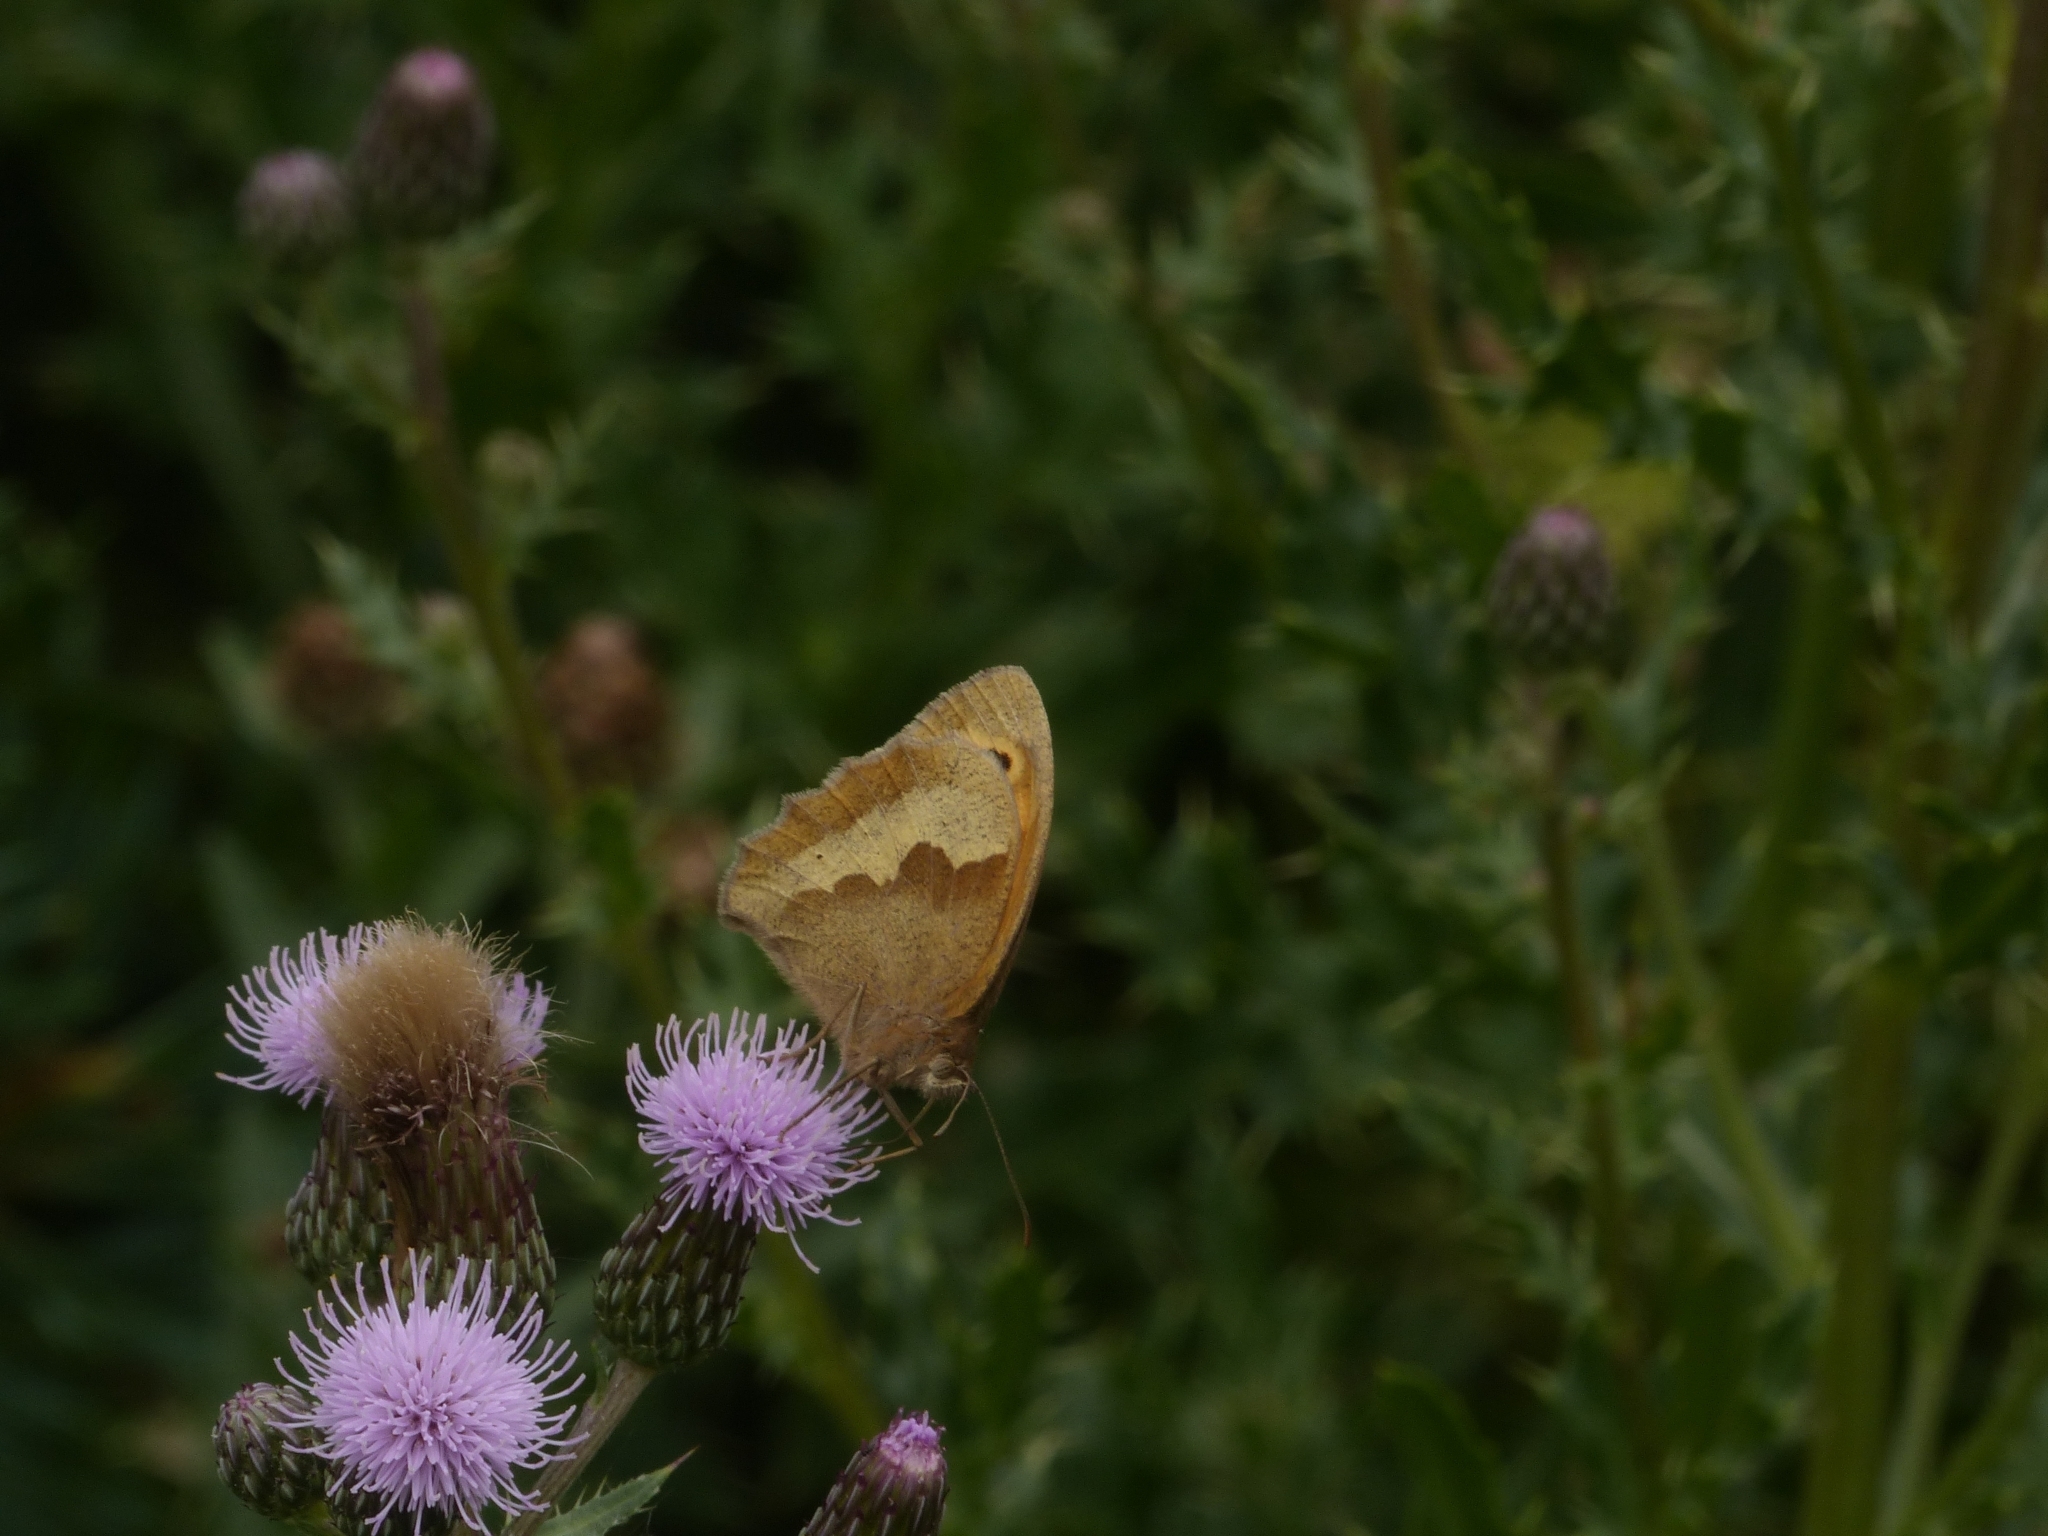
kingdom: Animalia
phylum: Arthropoda
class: Insecta
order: Lepidoptera
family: Nymphalidae
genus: Maniola
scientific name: Maniola jurtina
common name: Meadow brown
